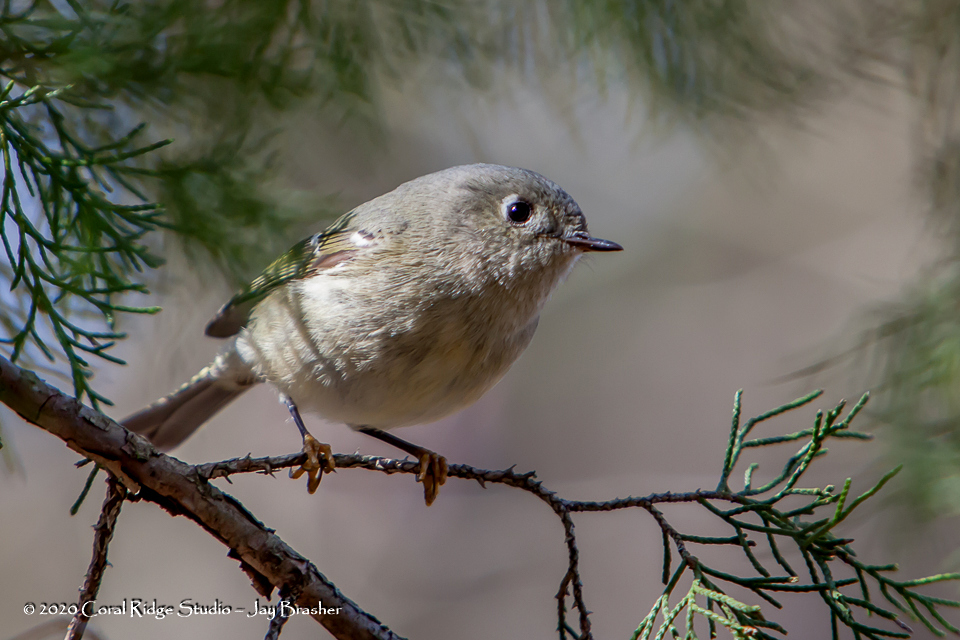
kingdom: Animalia
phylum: Chordata
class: Aves
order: Passeriformes
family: Regulidae
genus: Regulus
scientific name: Regulus calendula
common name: Ruby-crowned kinglet
